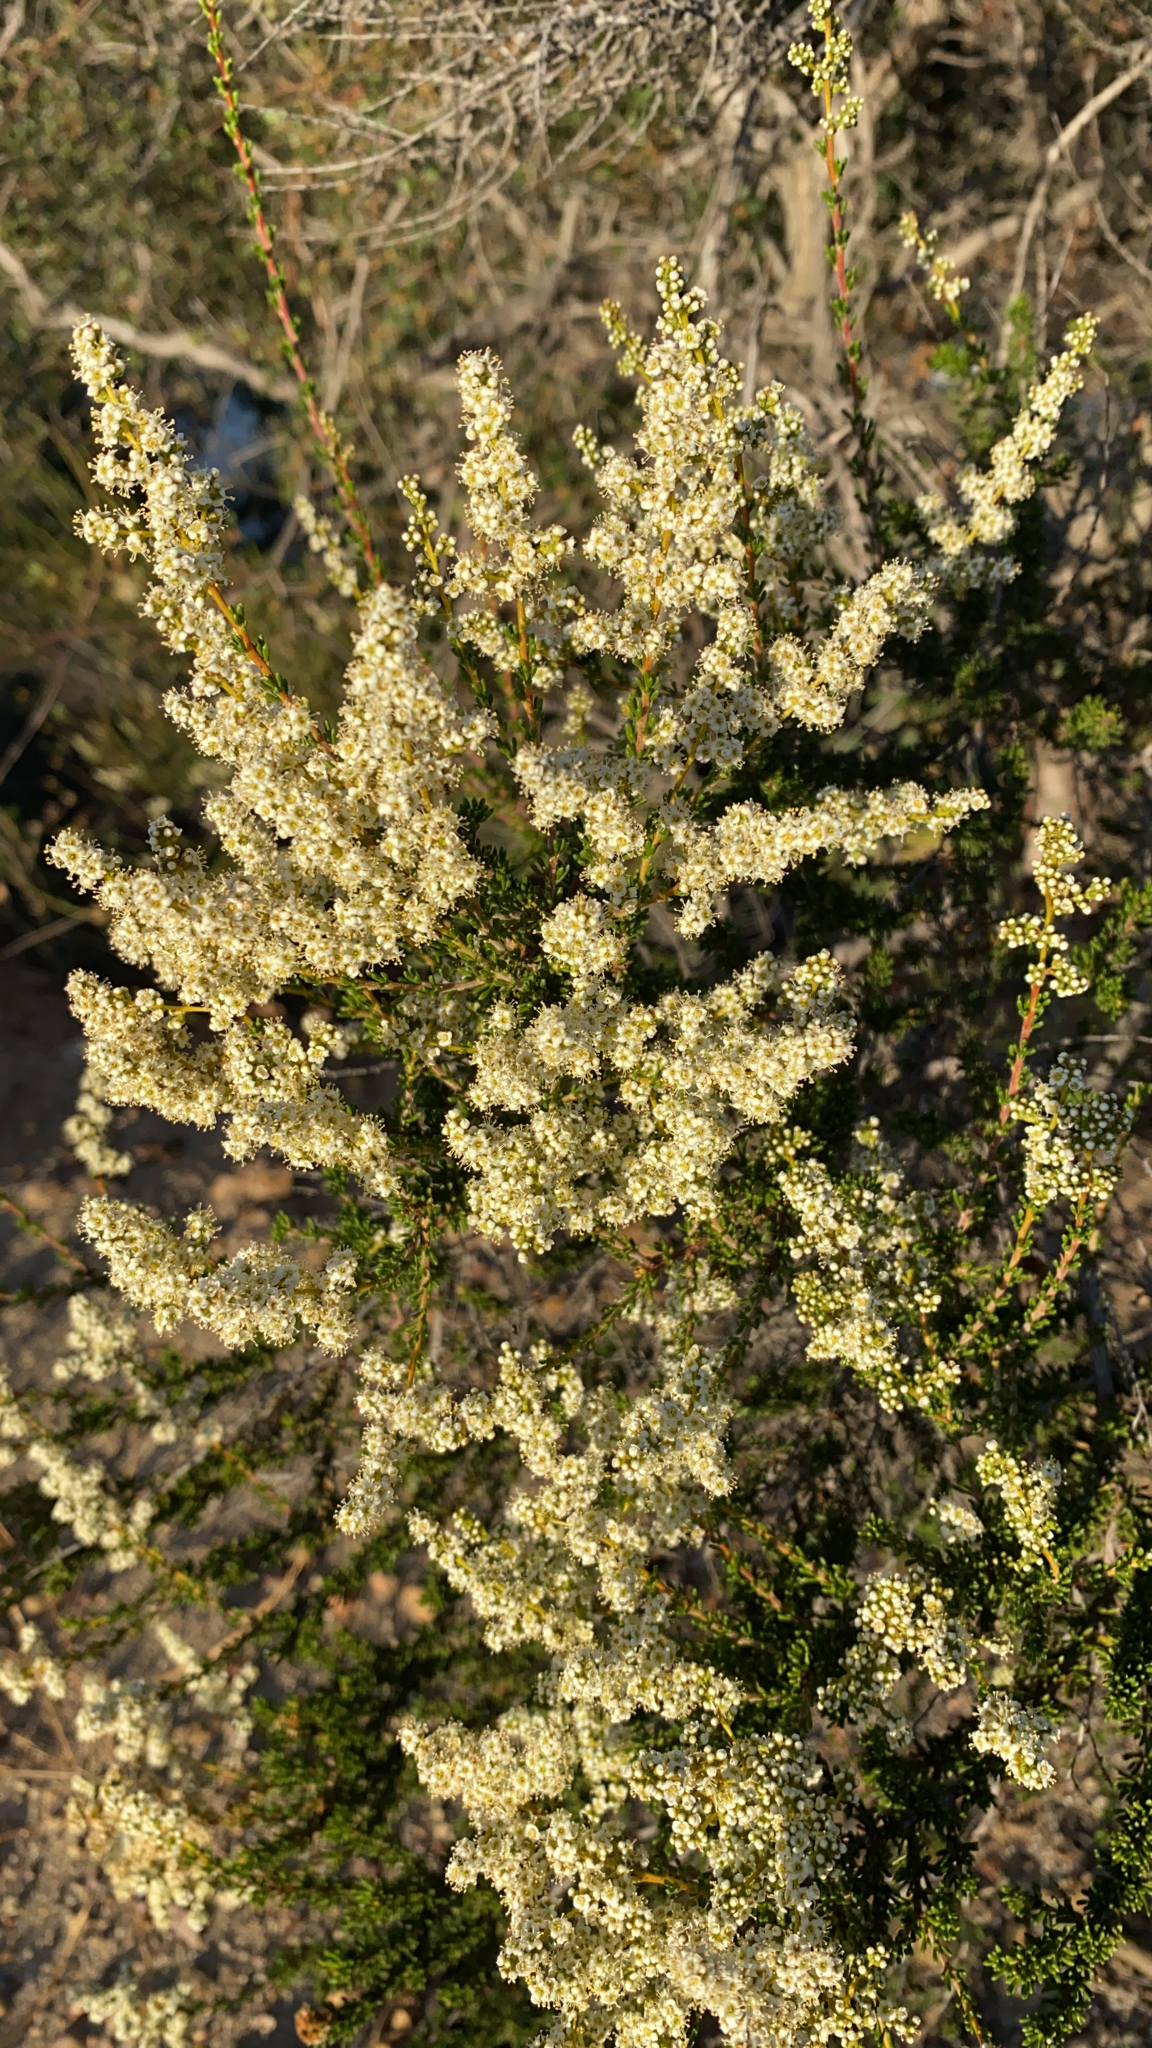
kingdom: Plantae
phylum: Tracheophyta
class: Magnoliopsida
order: Rosales
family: Rosaceae
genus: Adenostoma
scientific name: Adenostoma fasciculatum
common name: Chamise
